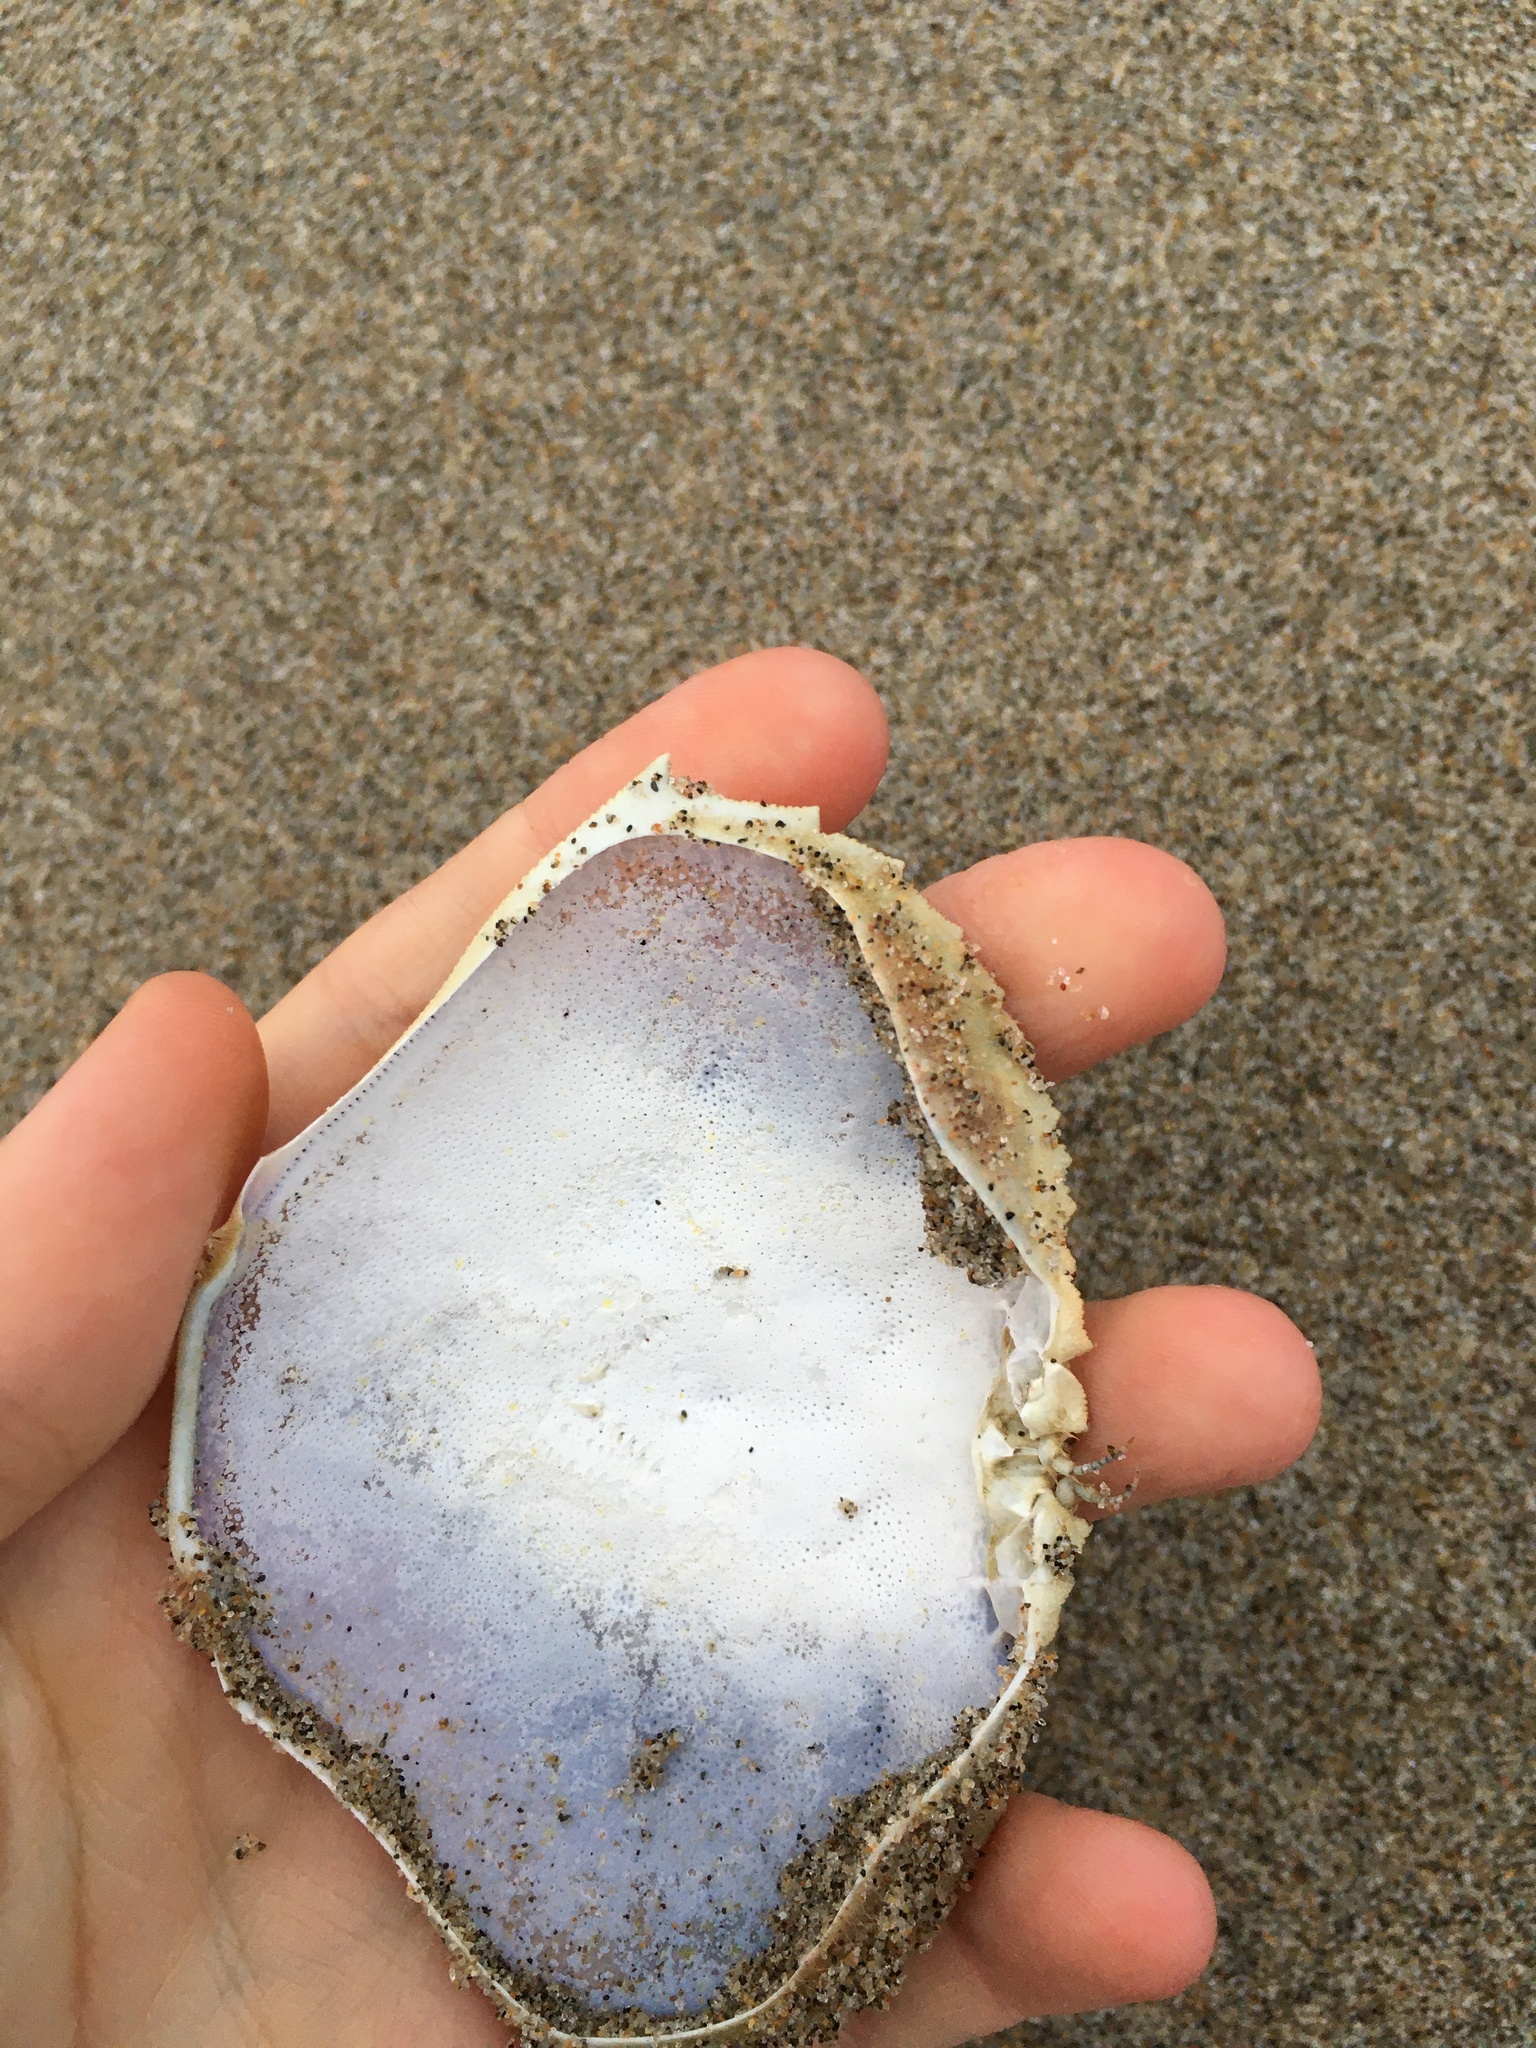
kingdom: Animalia
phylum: Arthropoda
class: Malacostraca
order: Decapoda
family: Cancridae
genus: Metacarcinus
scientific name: Metacarcinus magister
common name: Californian crab
